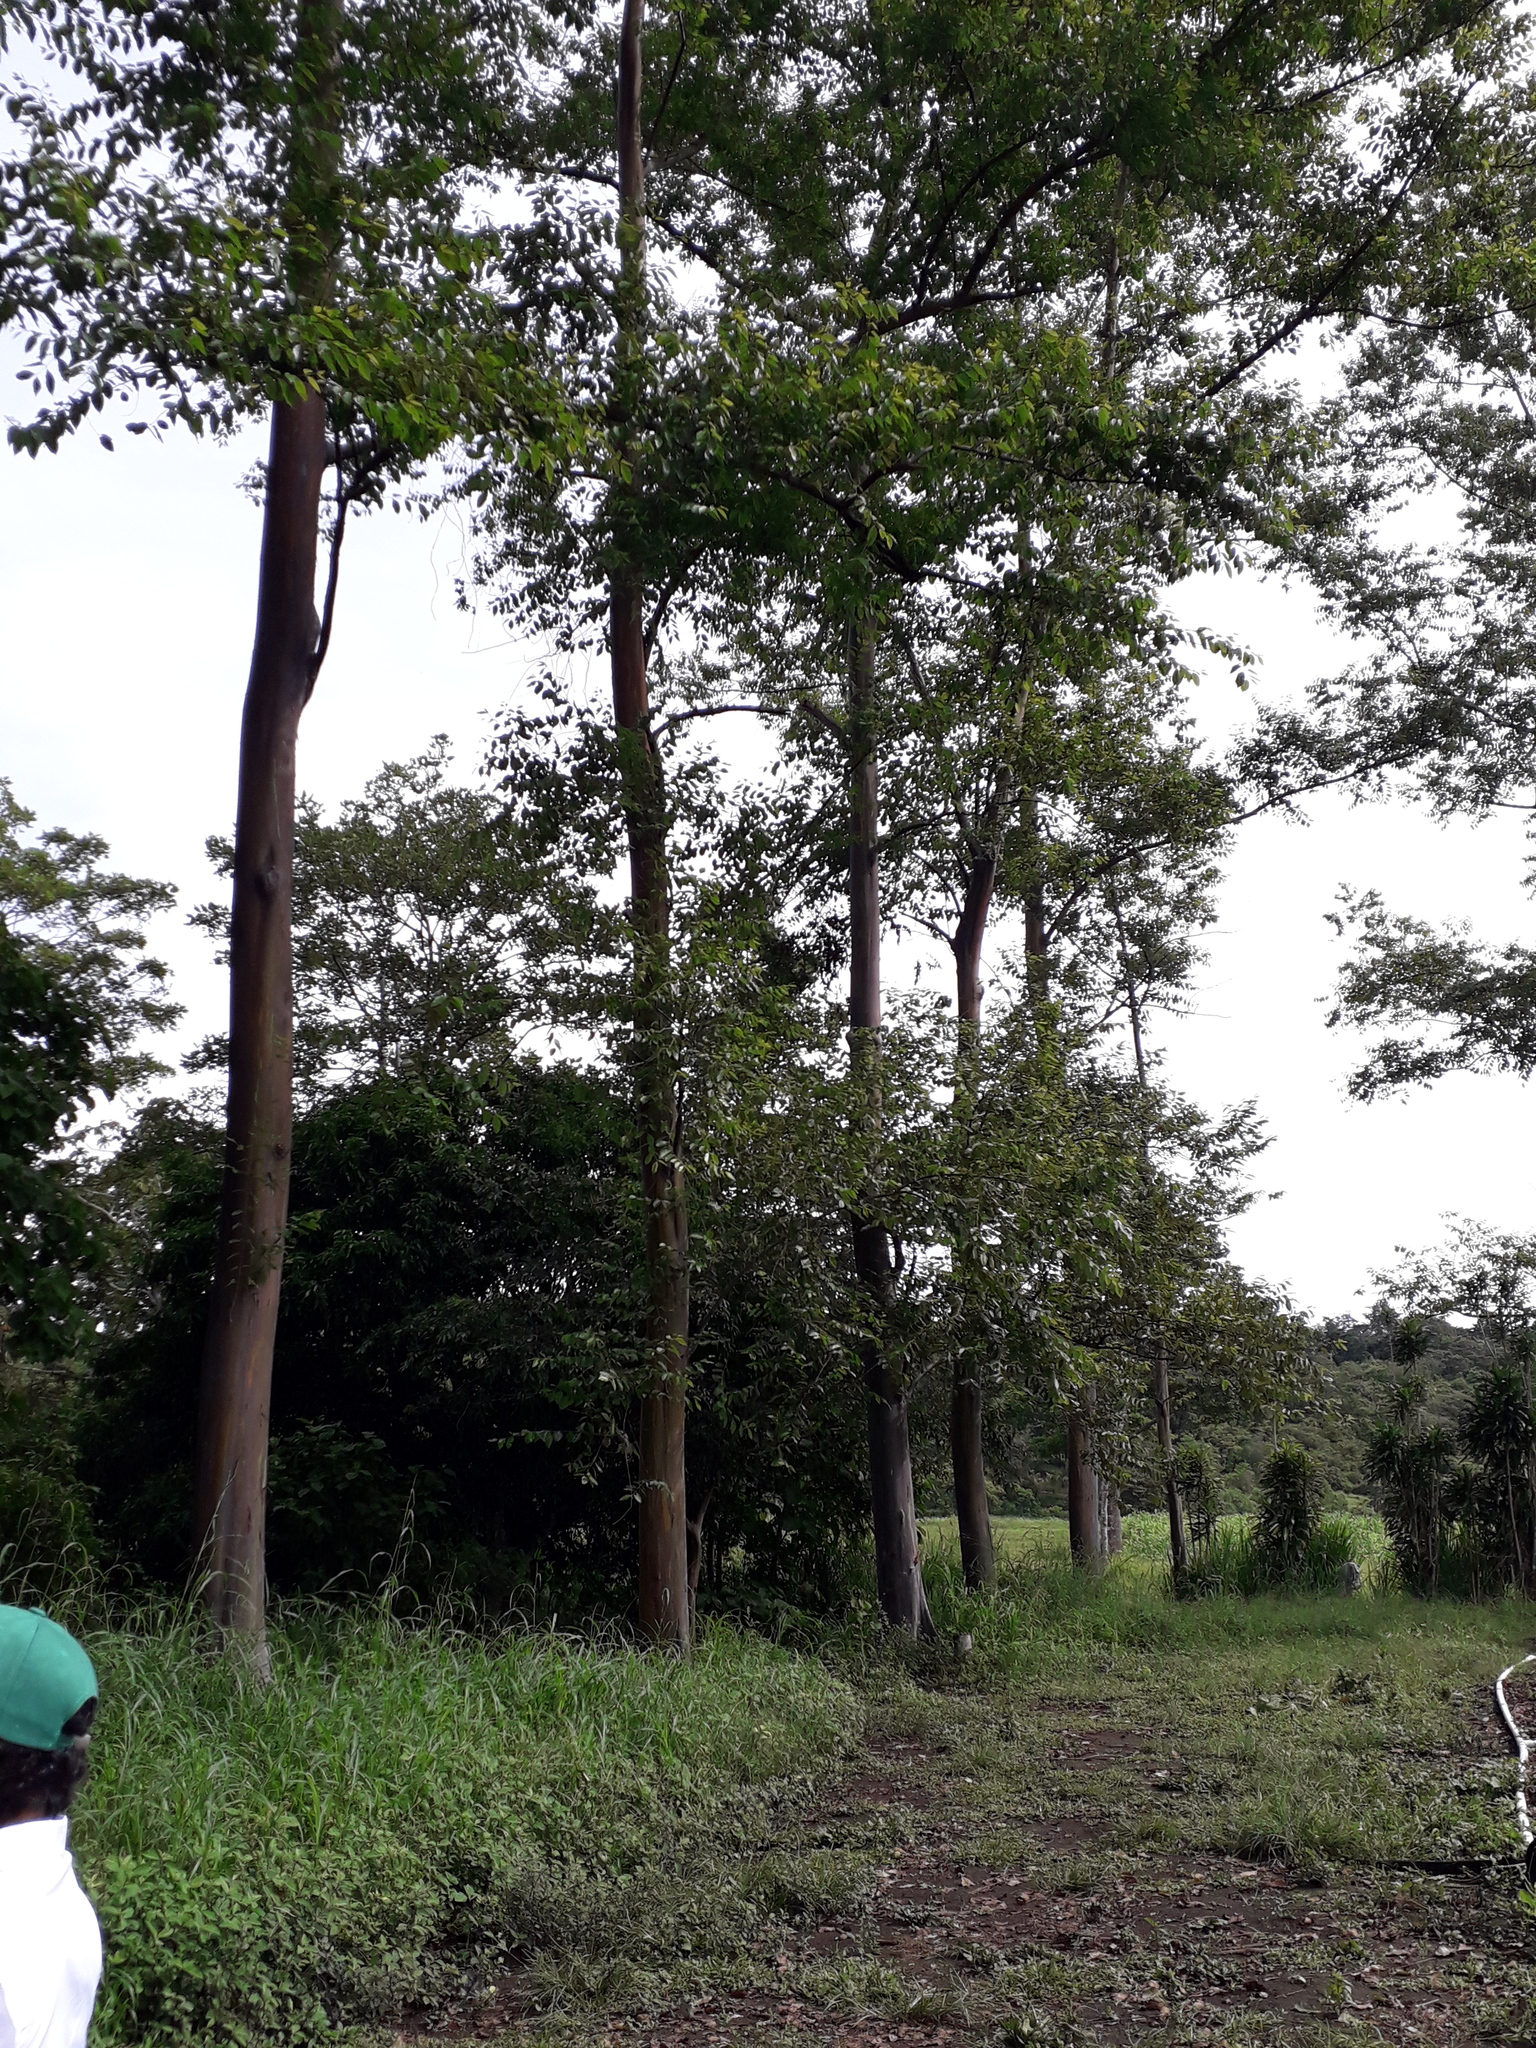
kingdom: Plantae
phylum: Tracheophyta
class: Magnoliopsida
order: Myrtales
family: Myrtaceae
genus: Eucalyptus
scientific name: Eucalyptus camaldulensis
